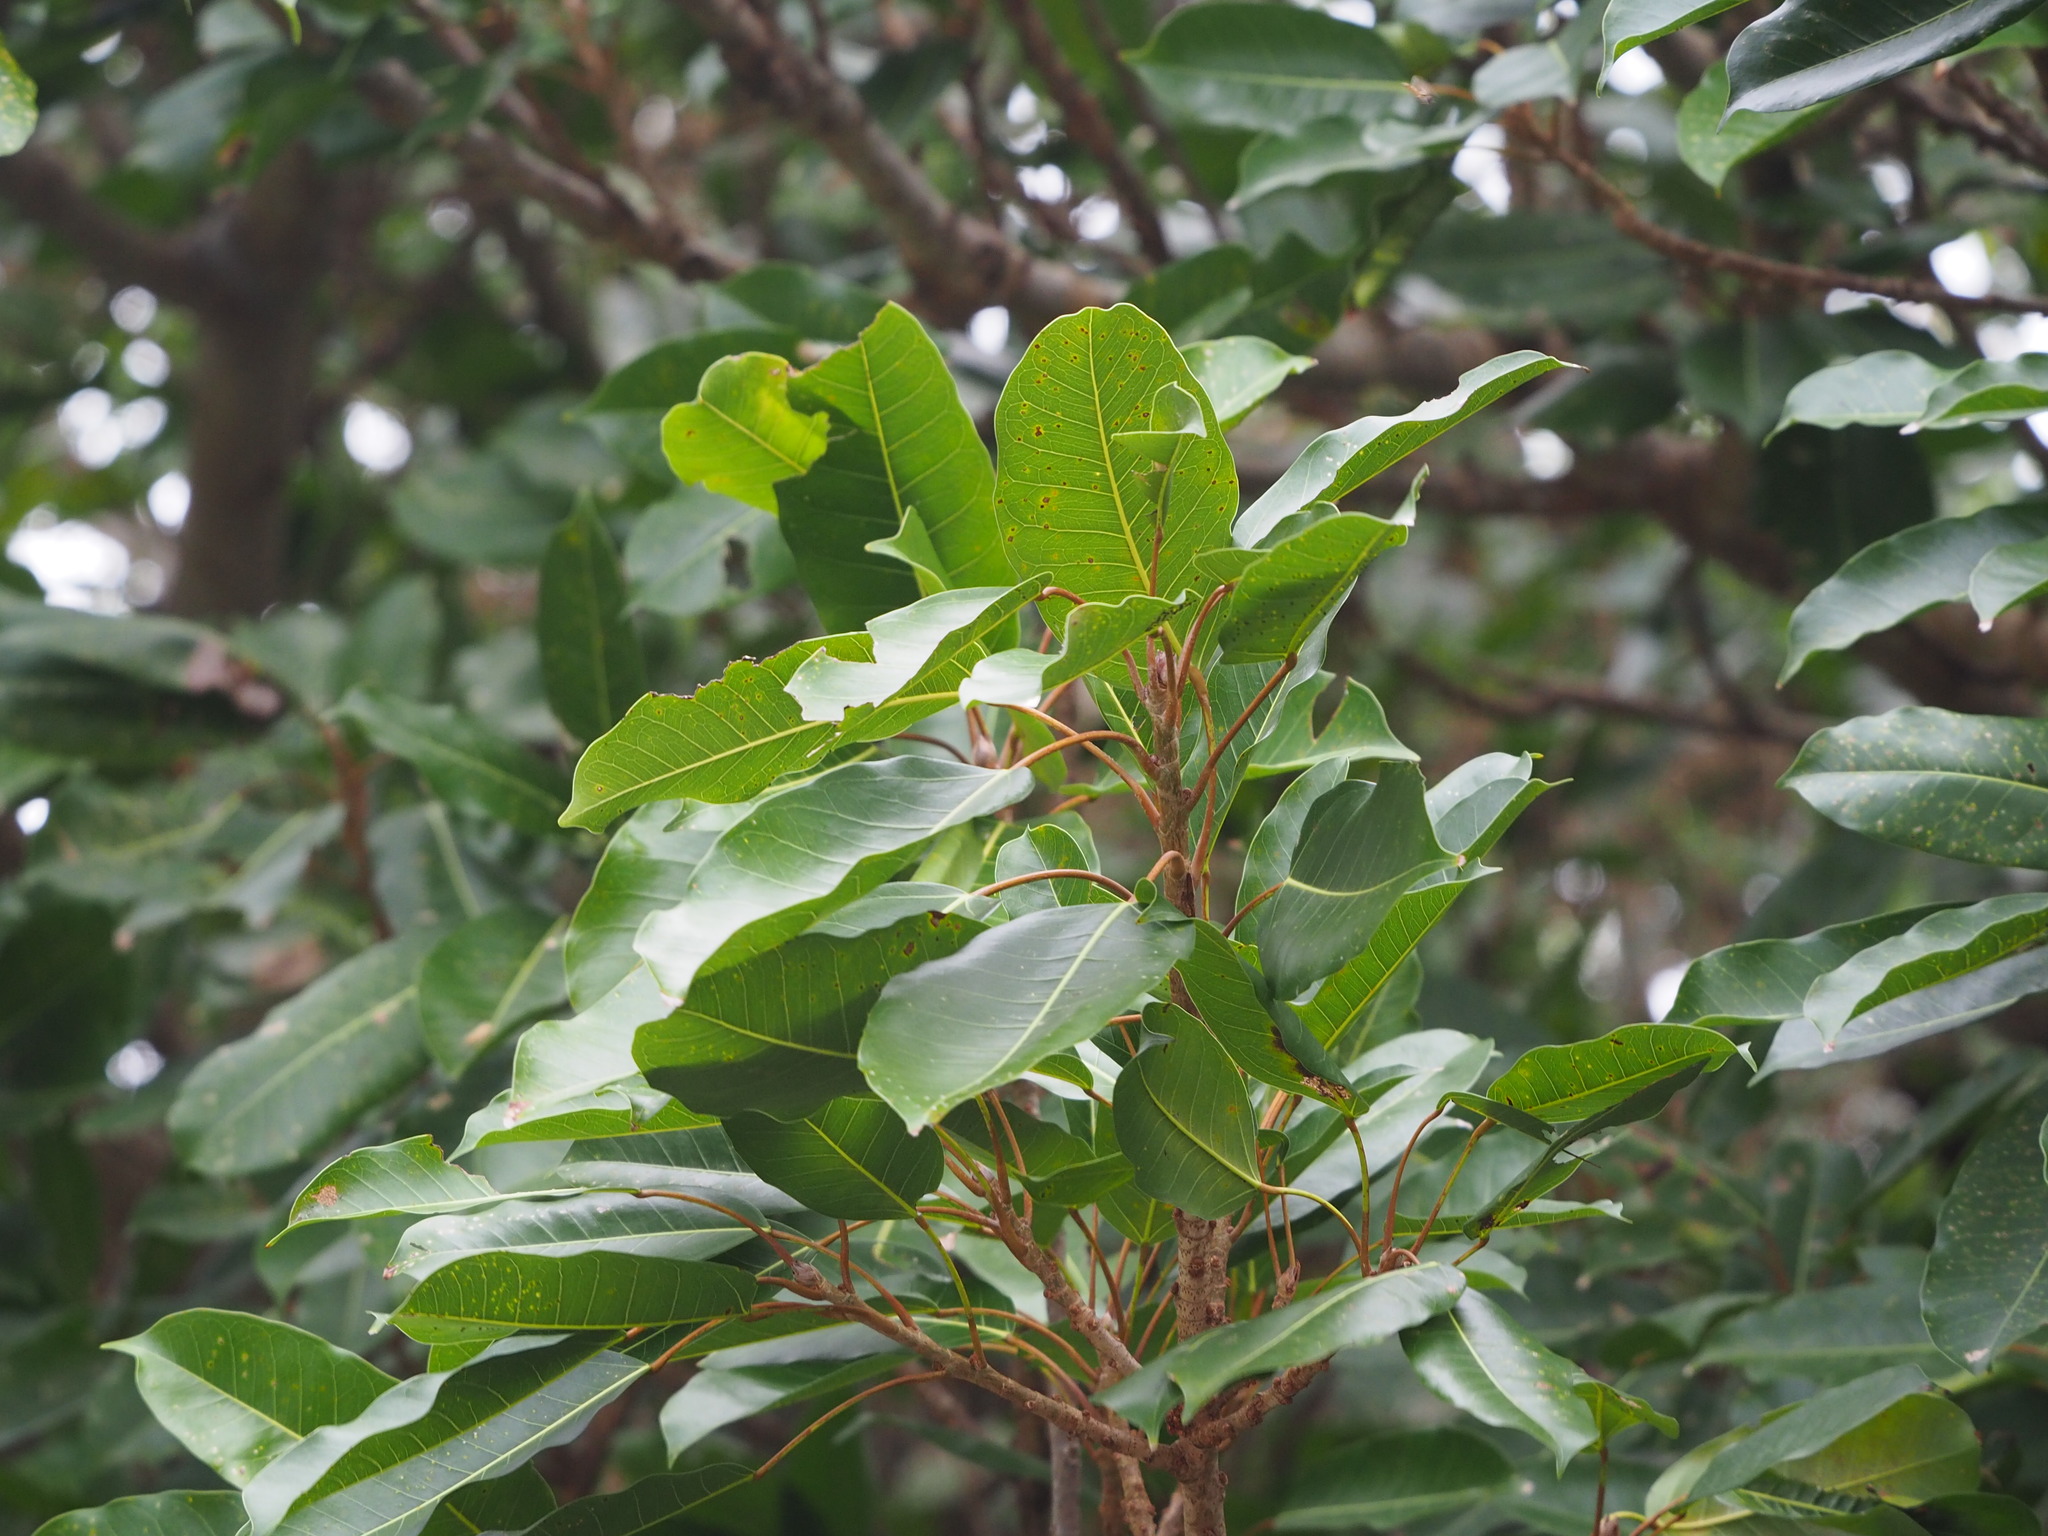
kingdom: Plantae
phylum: Tracheophyta
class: Magnoliopsida
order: Rosales
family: Moraceae
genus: Ficus
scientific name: Ficus subpisocarpa
